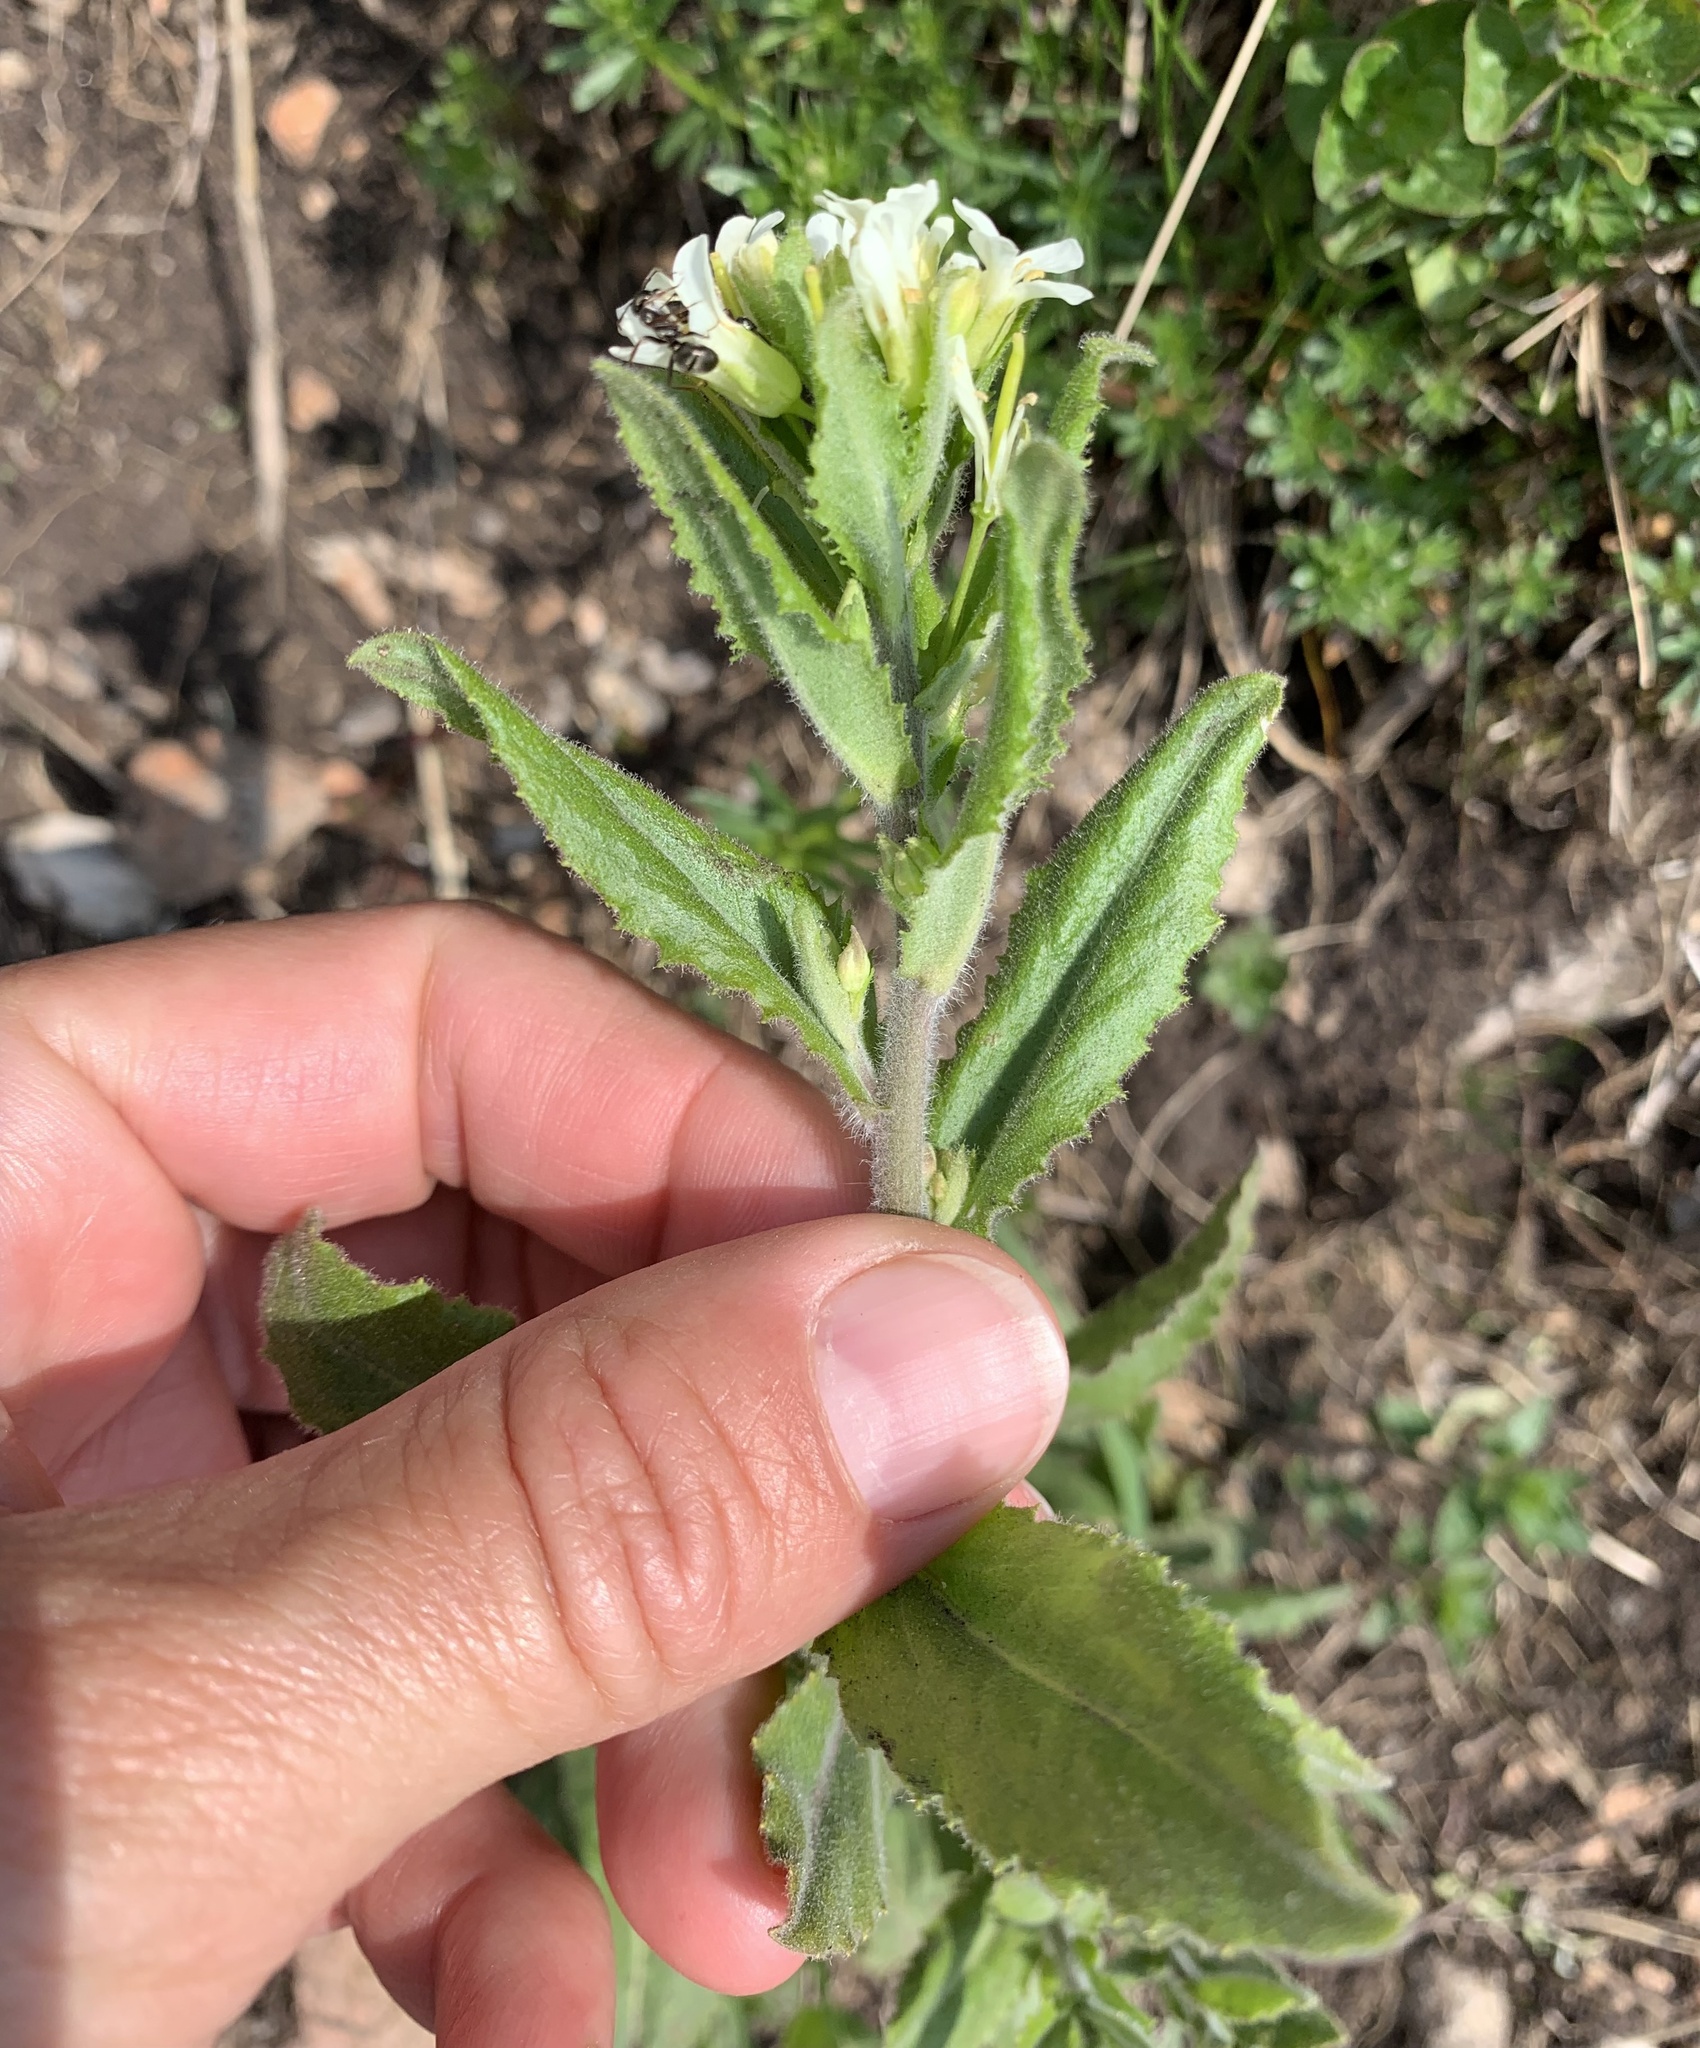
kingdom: Plantae
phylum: Tracheophyta
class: Magnoliopsida
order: Brassicales
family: Brassicaceae
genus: Pseudoturritis
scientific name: Pseudoturritis turrita
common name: Tower cress
